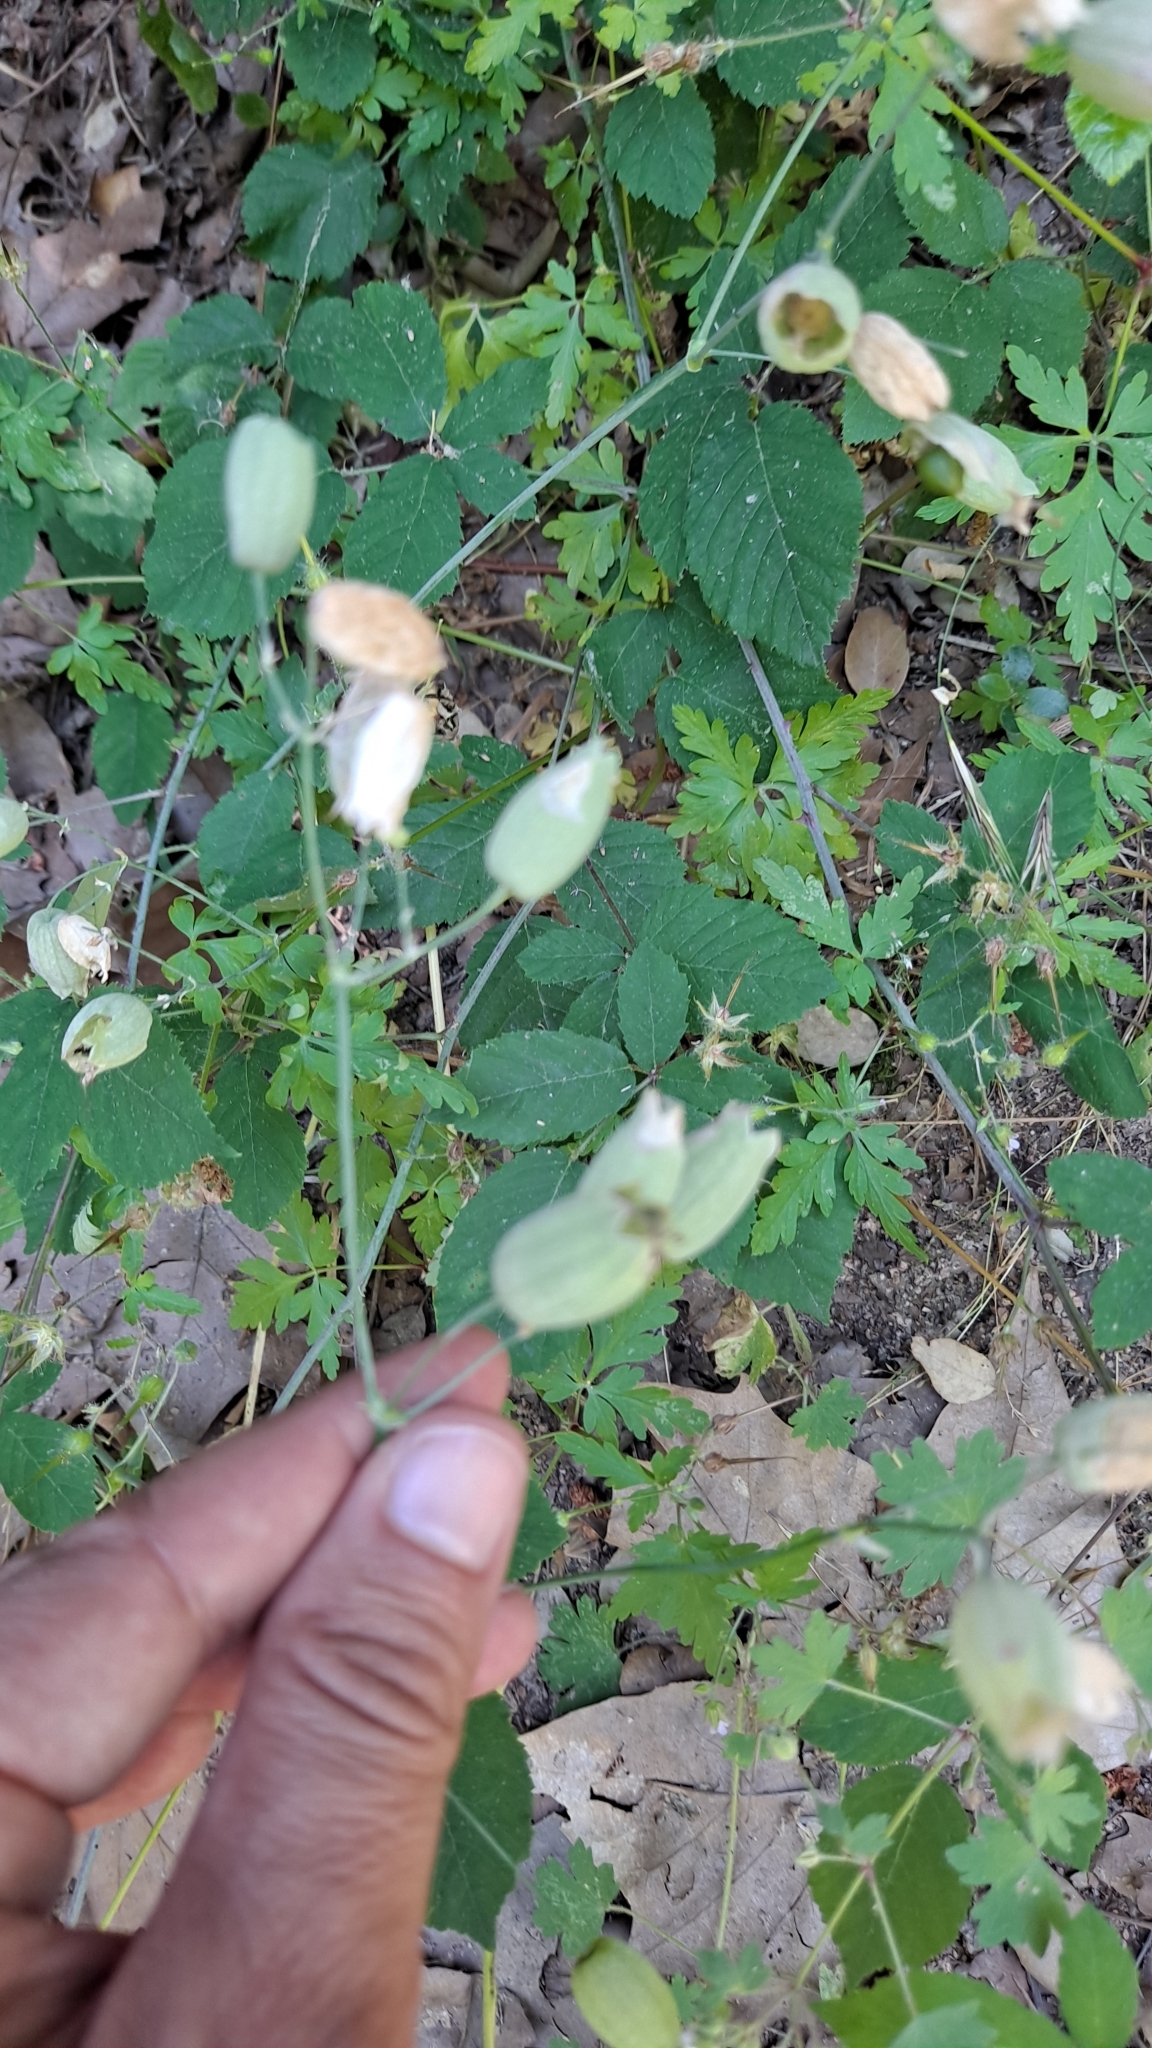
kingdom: Plantae
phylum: Tracheophyta
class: Magnoliopsida
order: Caryophyllales
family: Caryophyllaceae
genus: Silene
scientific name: Silene vulgaris
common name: Bladder campion
